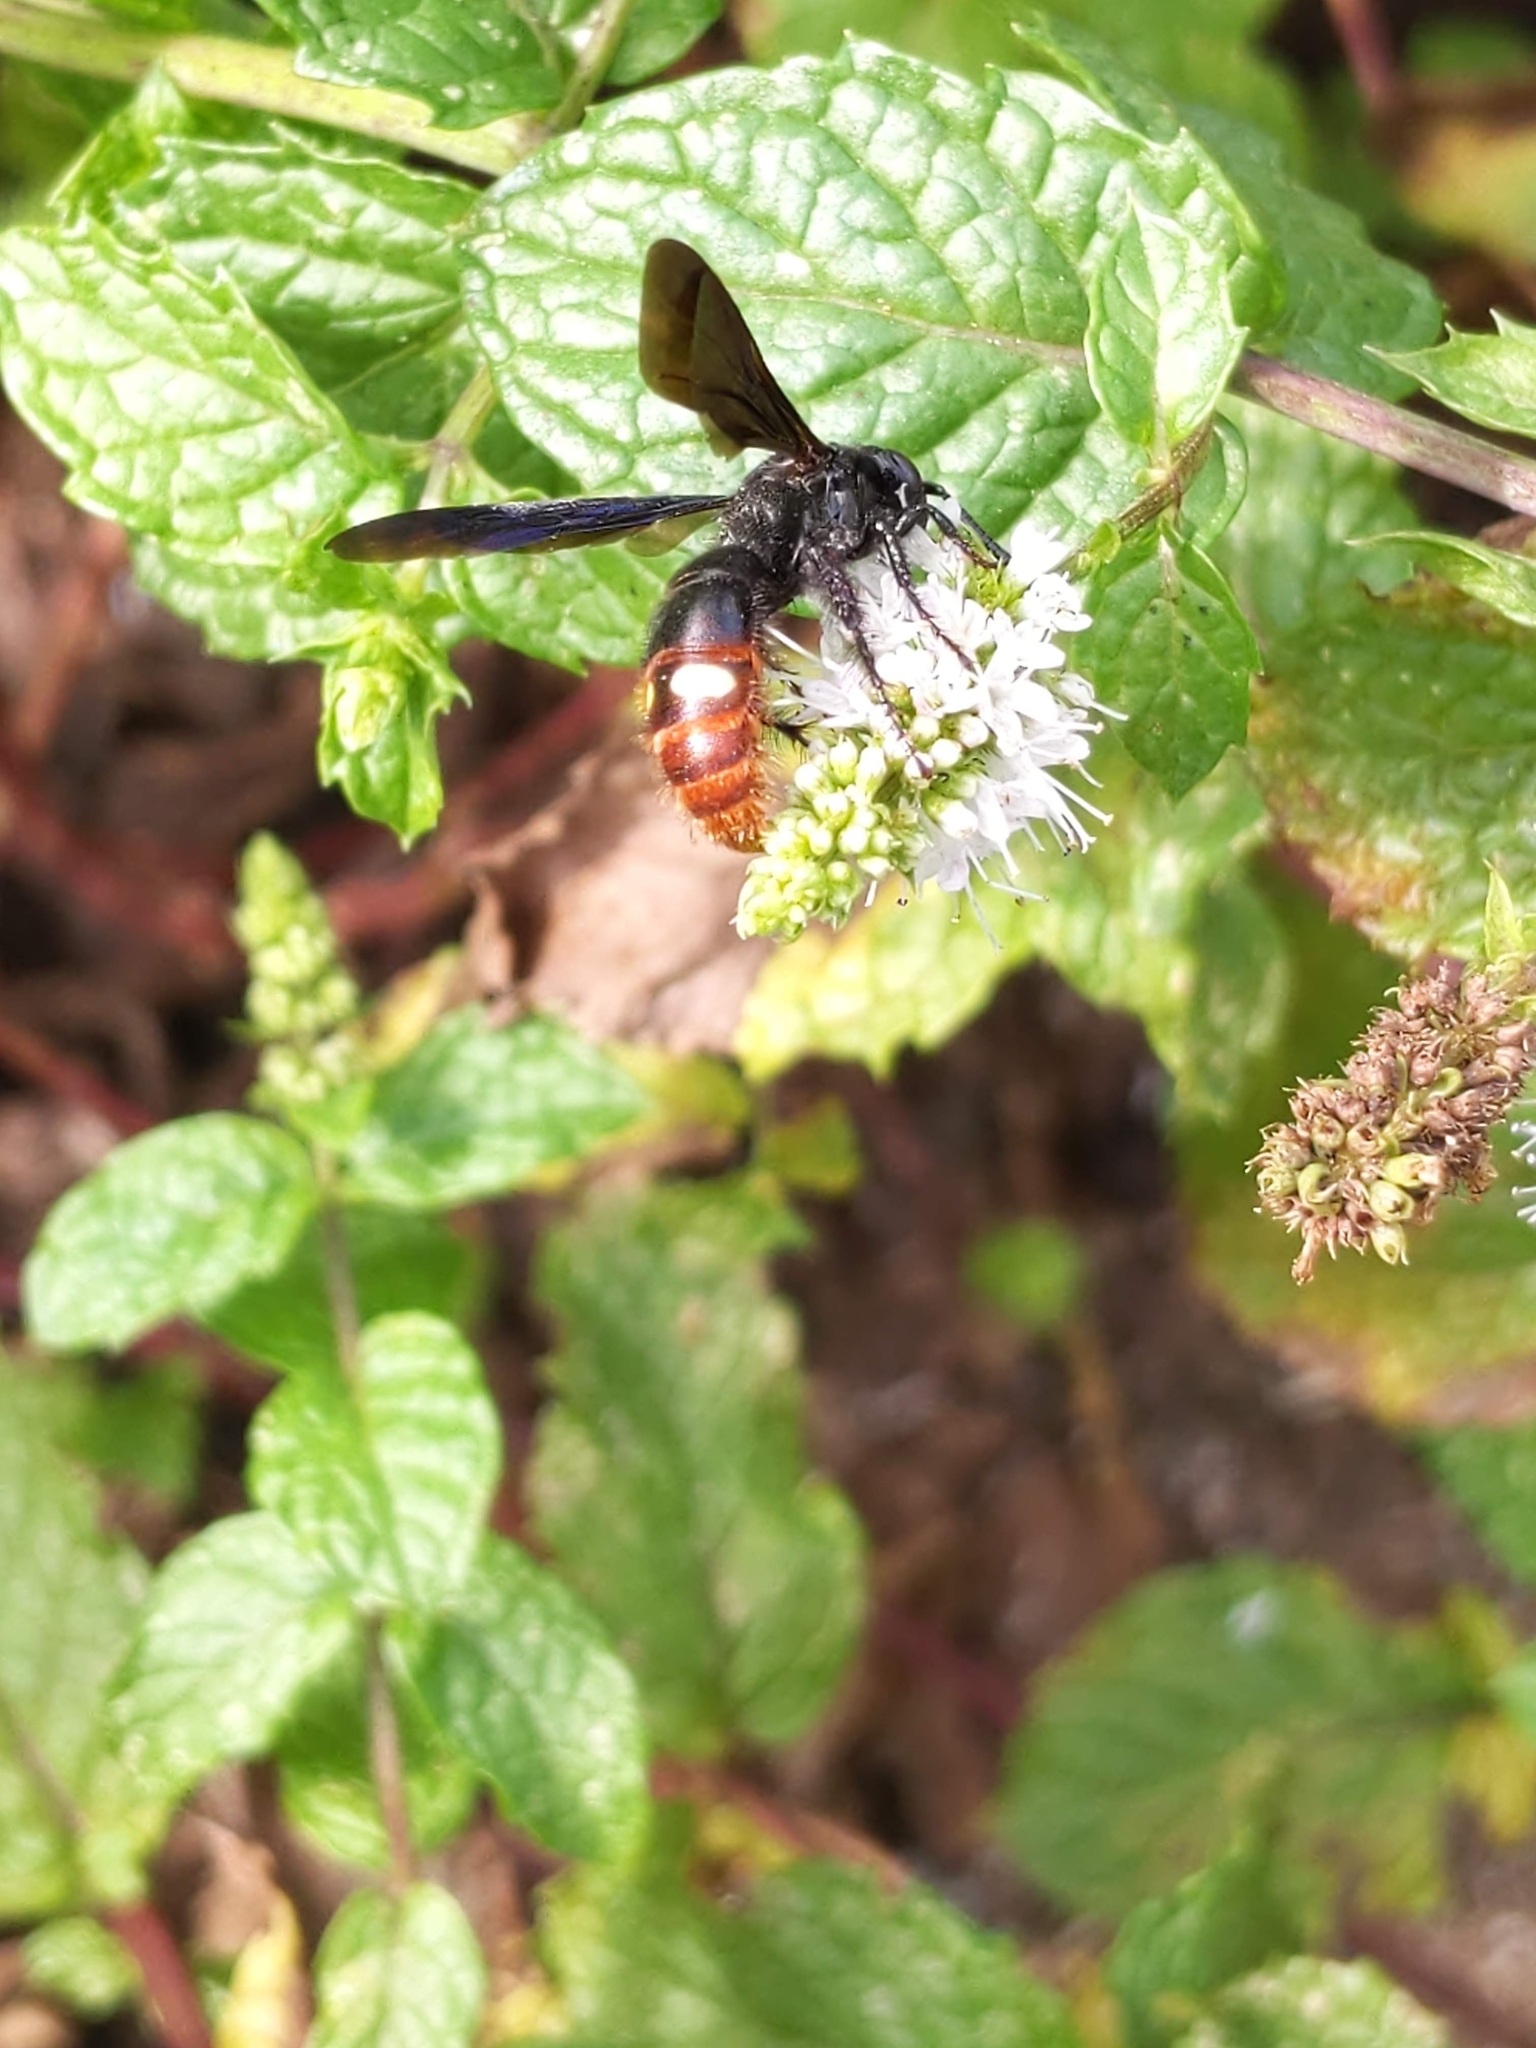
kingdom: Animalia
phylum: Arthropoda
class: Insecta
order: Hymenoptera
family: Scoliidae
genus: Scolia
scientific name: Scolia dubia
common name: Blue-winged scoliid wasp
